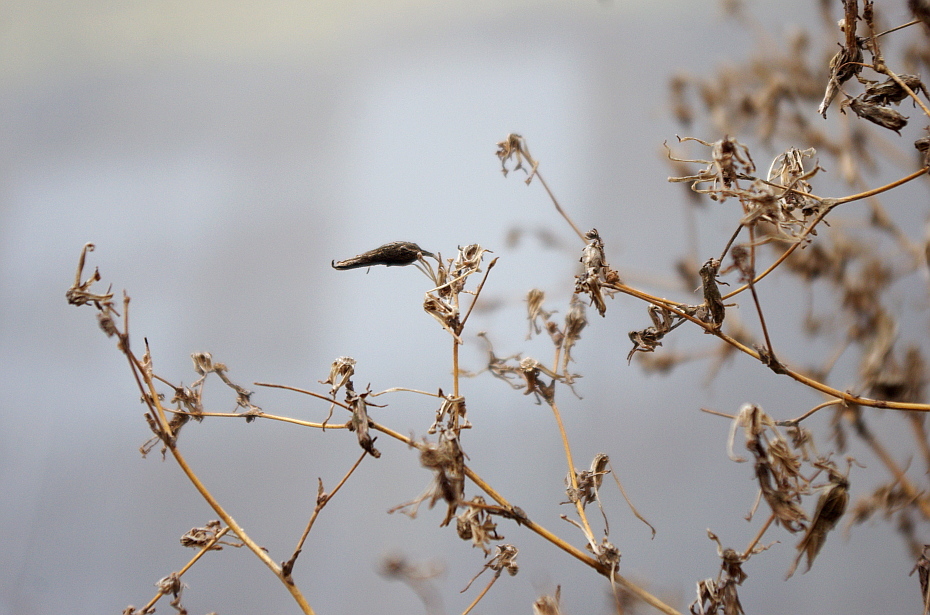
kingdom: Plantae
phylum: Tracheophyta
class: Magnoliopsida
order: Asterales
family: Asteraceae
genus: Lactuca
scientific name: Lactuca serriola
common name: Prickly lettuce
